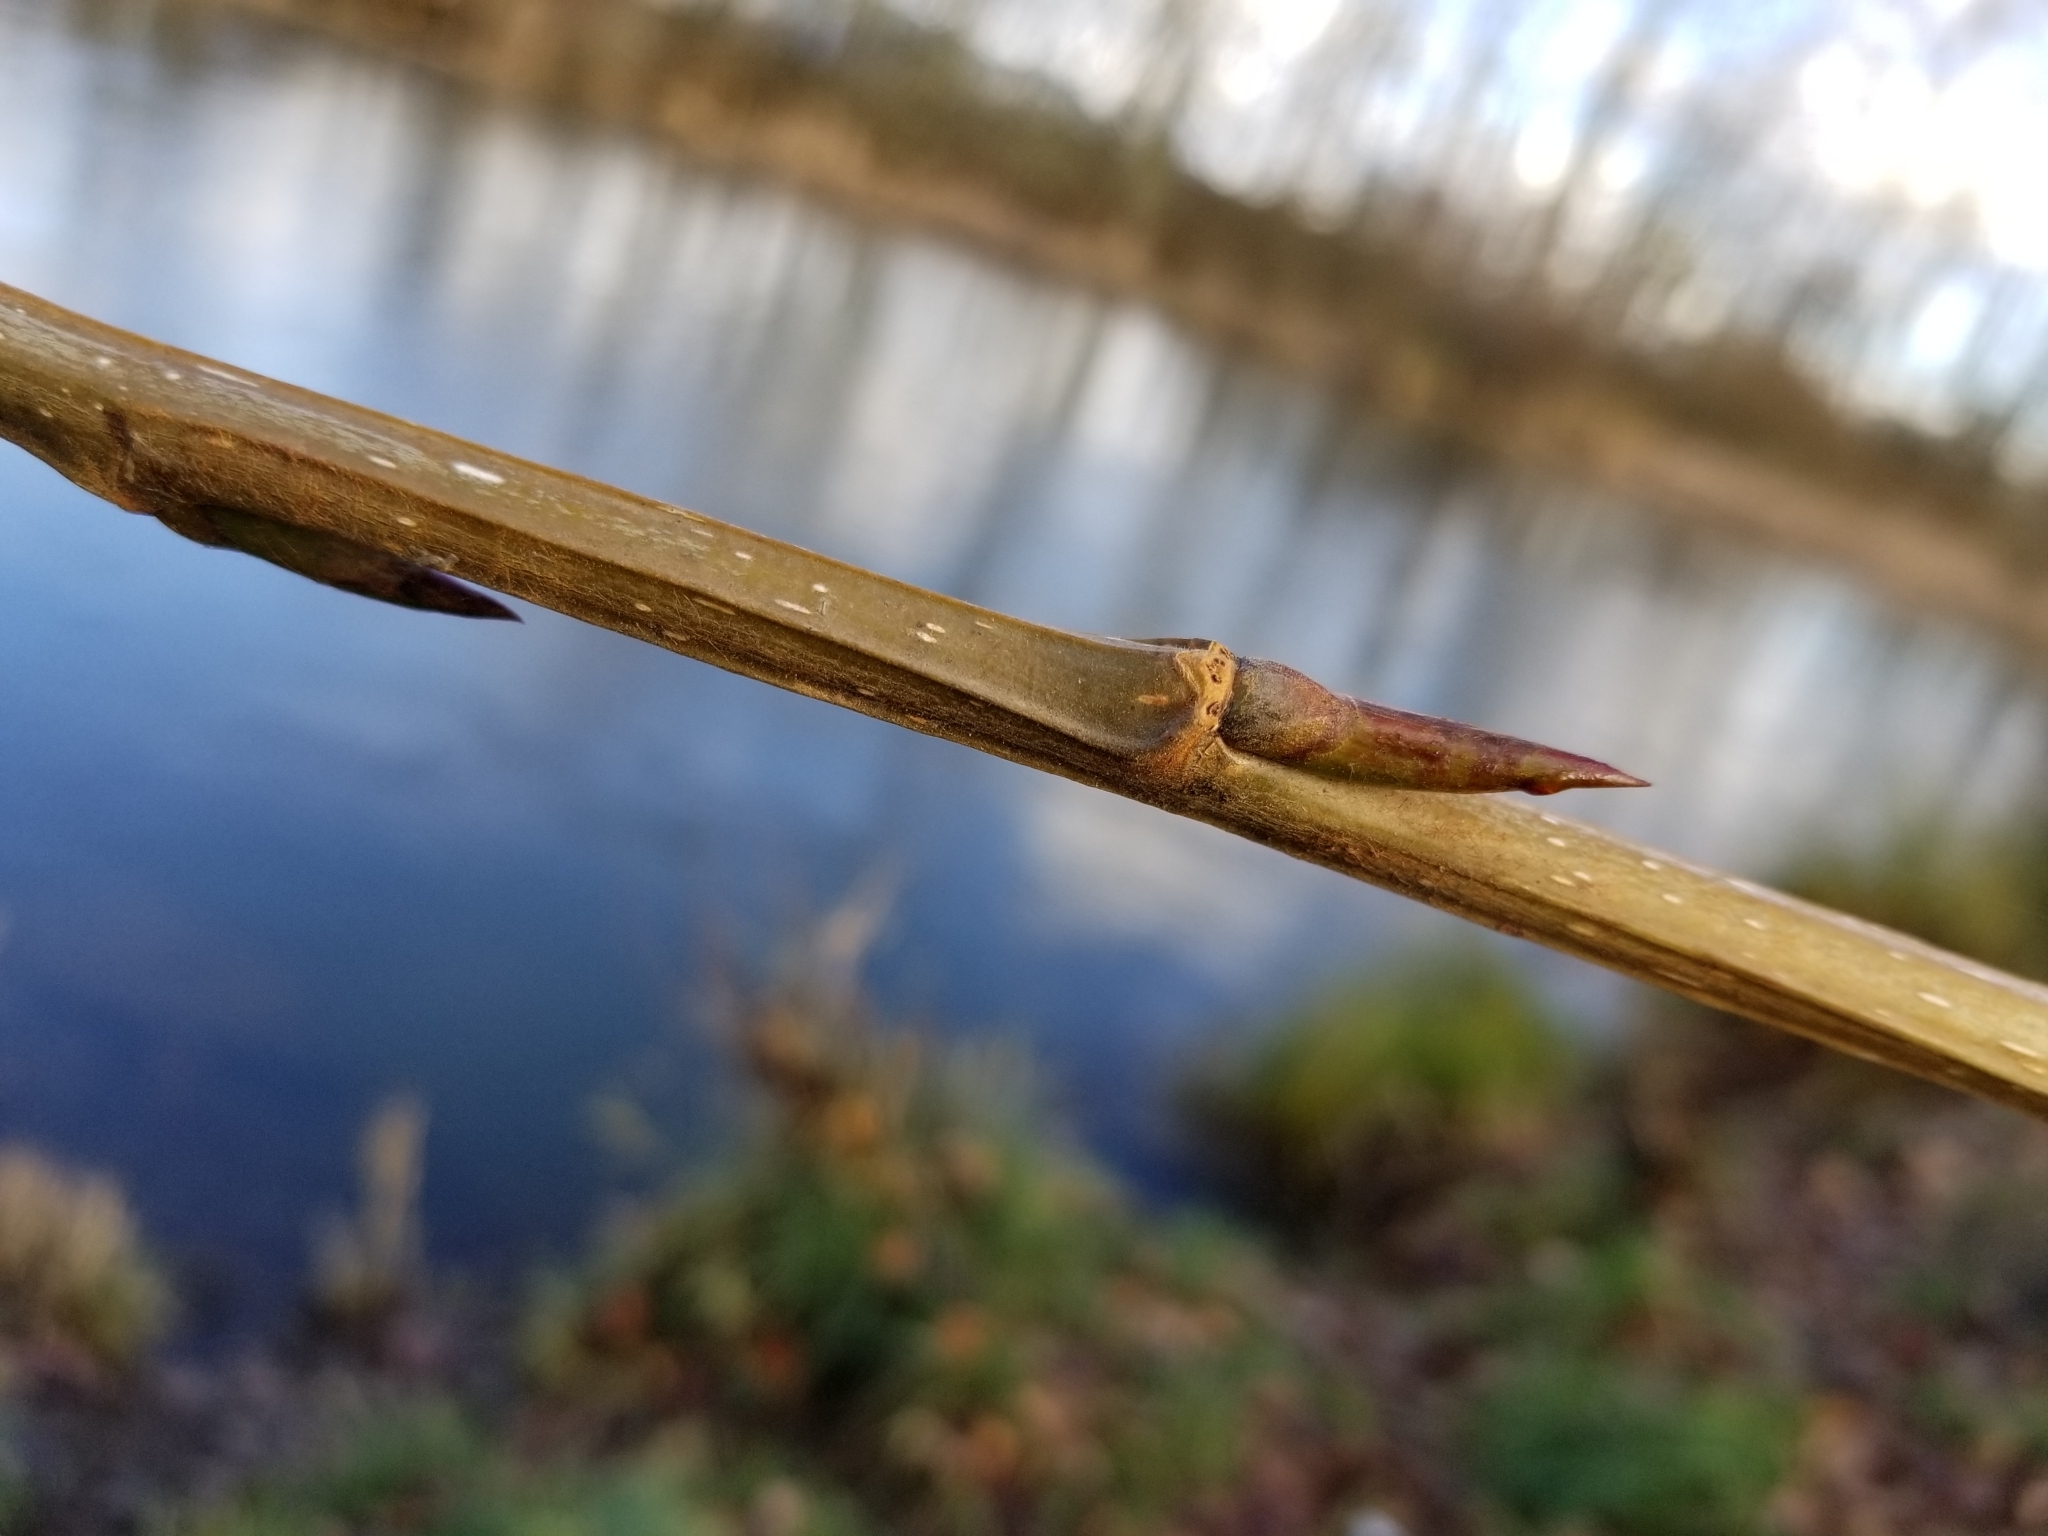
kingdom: Plantae
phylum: Tracheophyta
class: Magnoliopsida
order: Malpighiales
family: Salicaceae
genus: Populus
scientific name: Populus trichocarpa
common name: Black cottonwood
